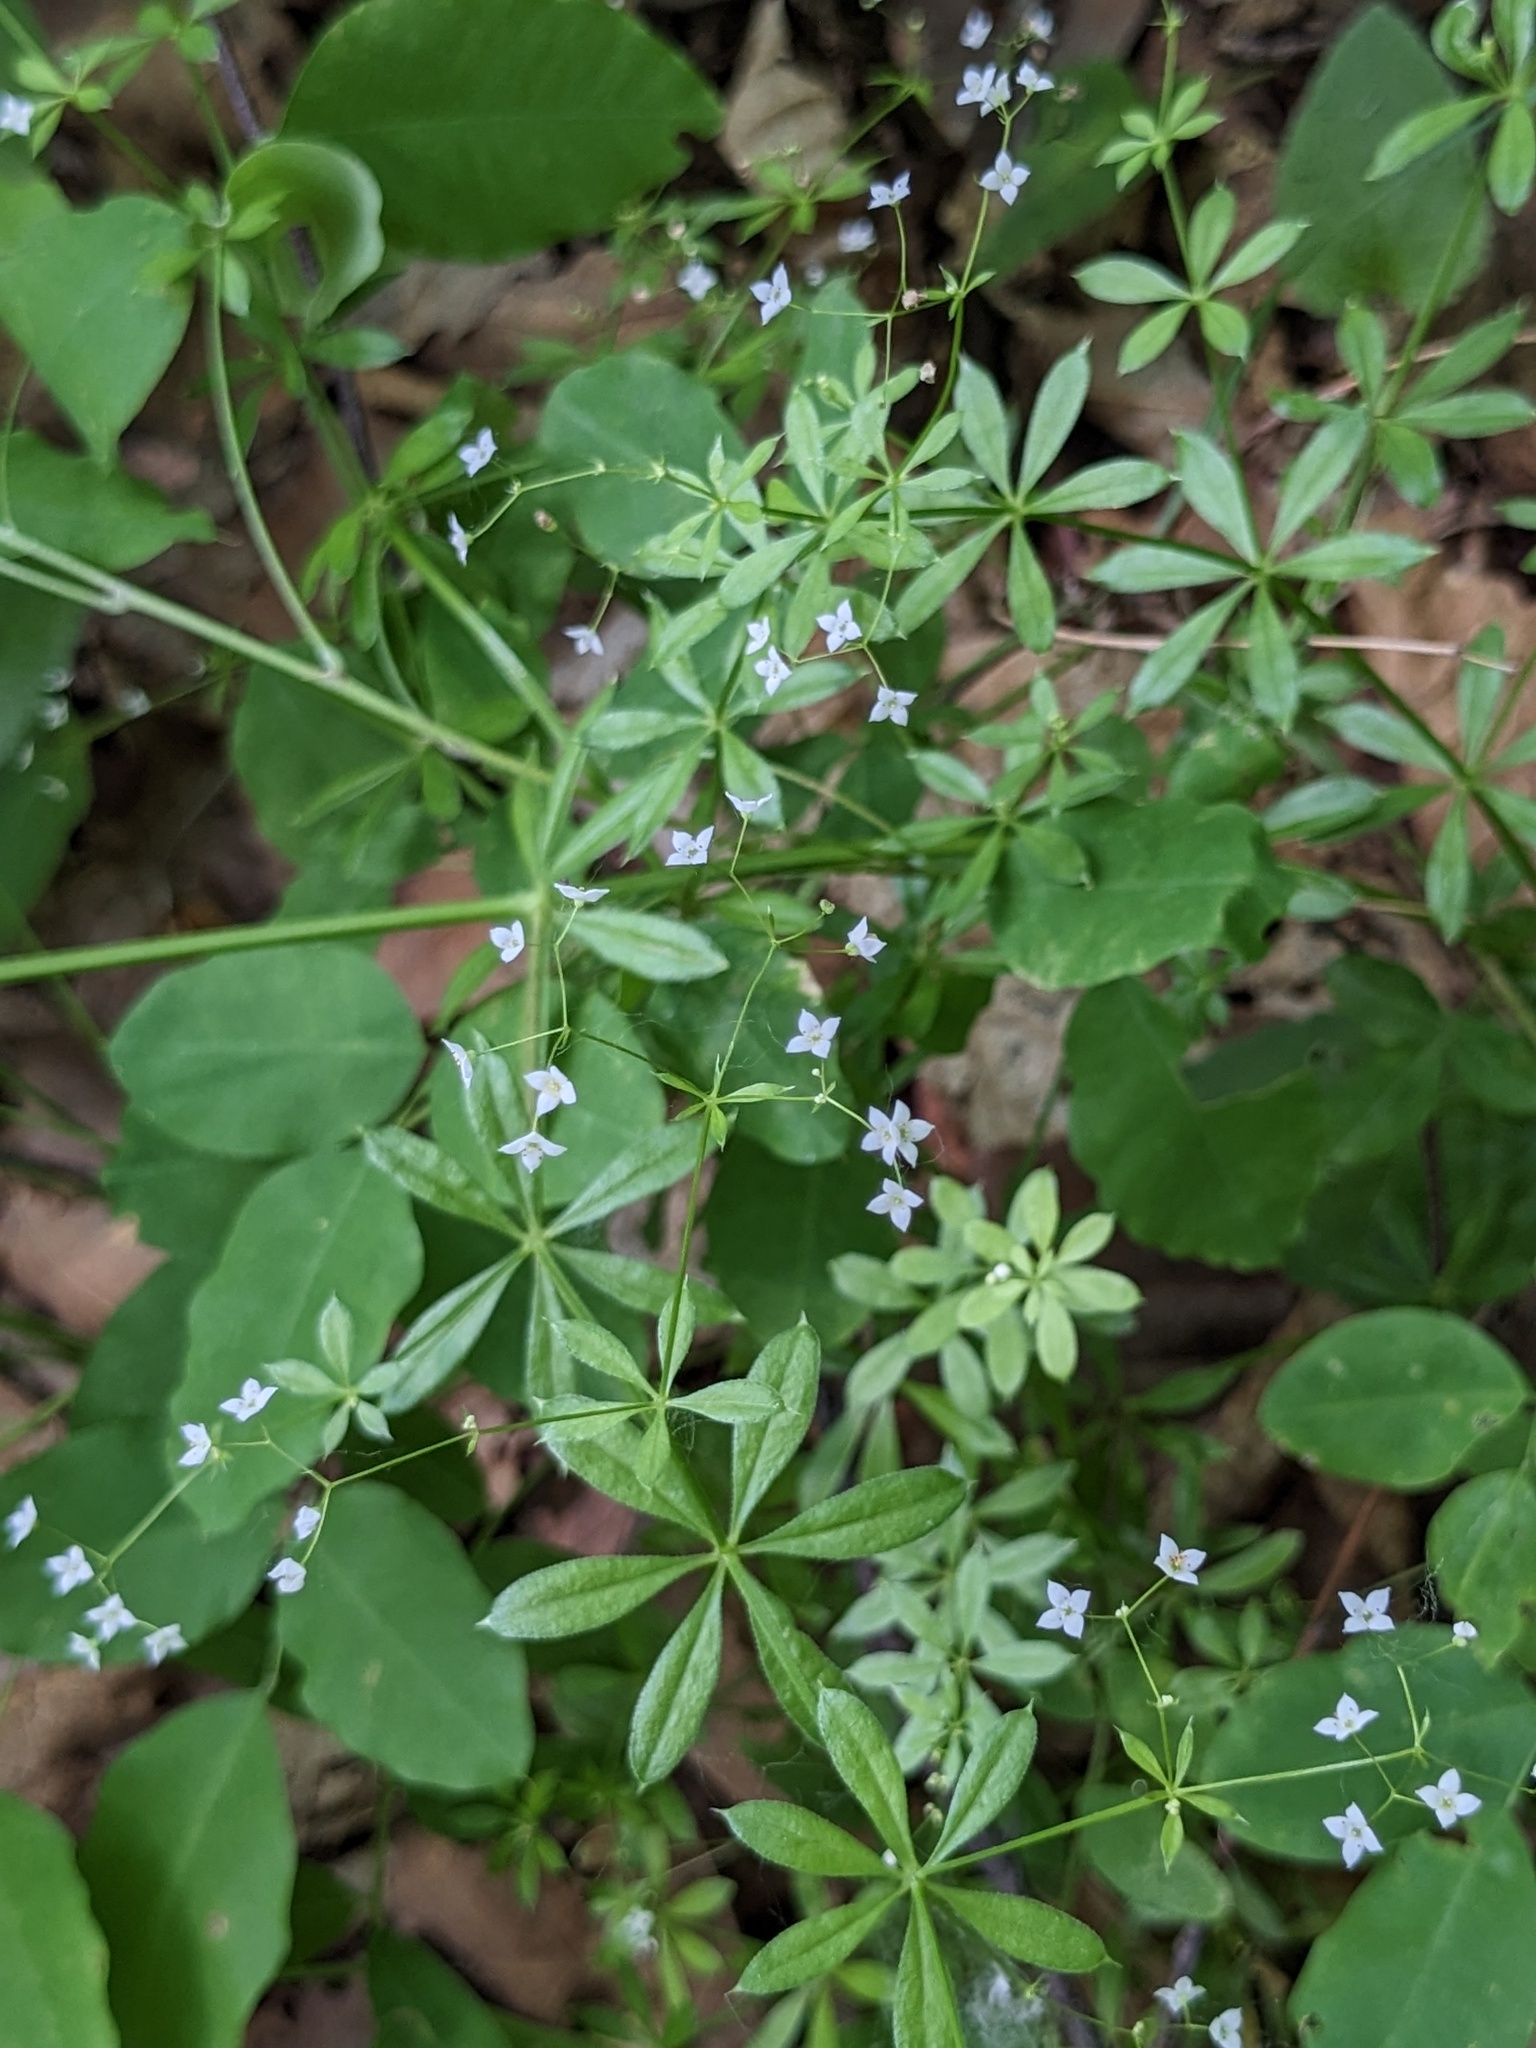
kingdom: Plantae
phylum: Tracheophyta
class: Magnoliopsida
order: Gentianales
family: Rubiaceae
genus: Galium
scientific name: Galium dahuricum
